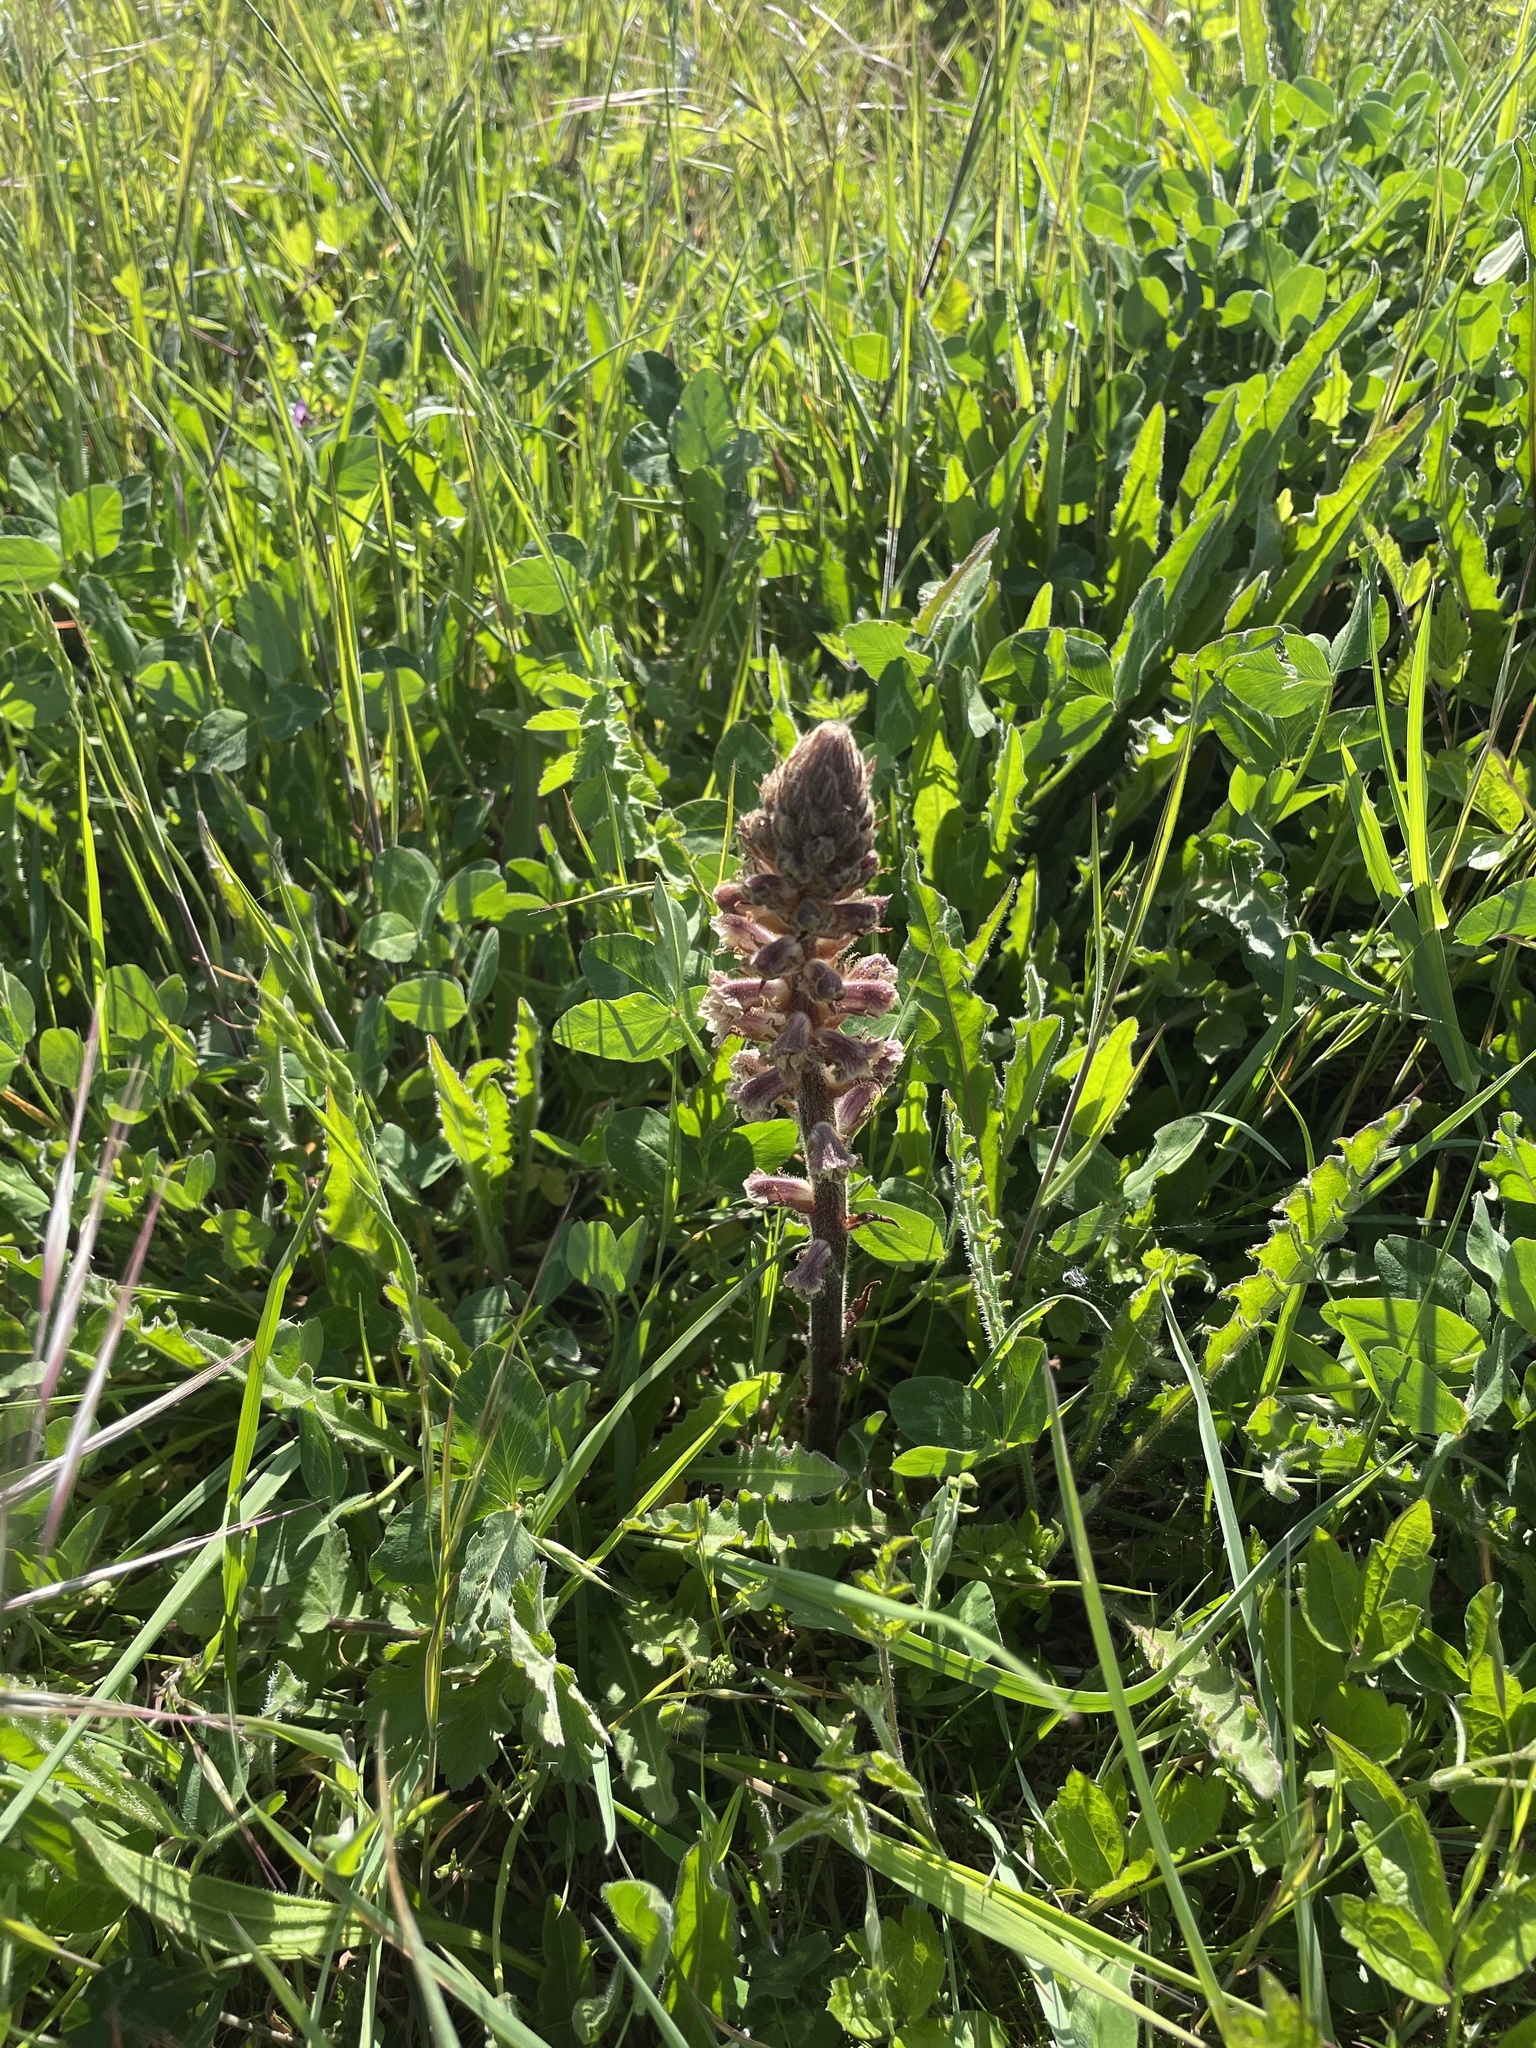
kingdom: Plantae
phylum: Tracheophyta
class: Magnoliopsida
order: Lamiales
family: Orobanchaceae
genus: Orobanche
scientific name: Orobanche minor
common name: Common broomrape
